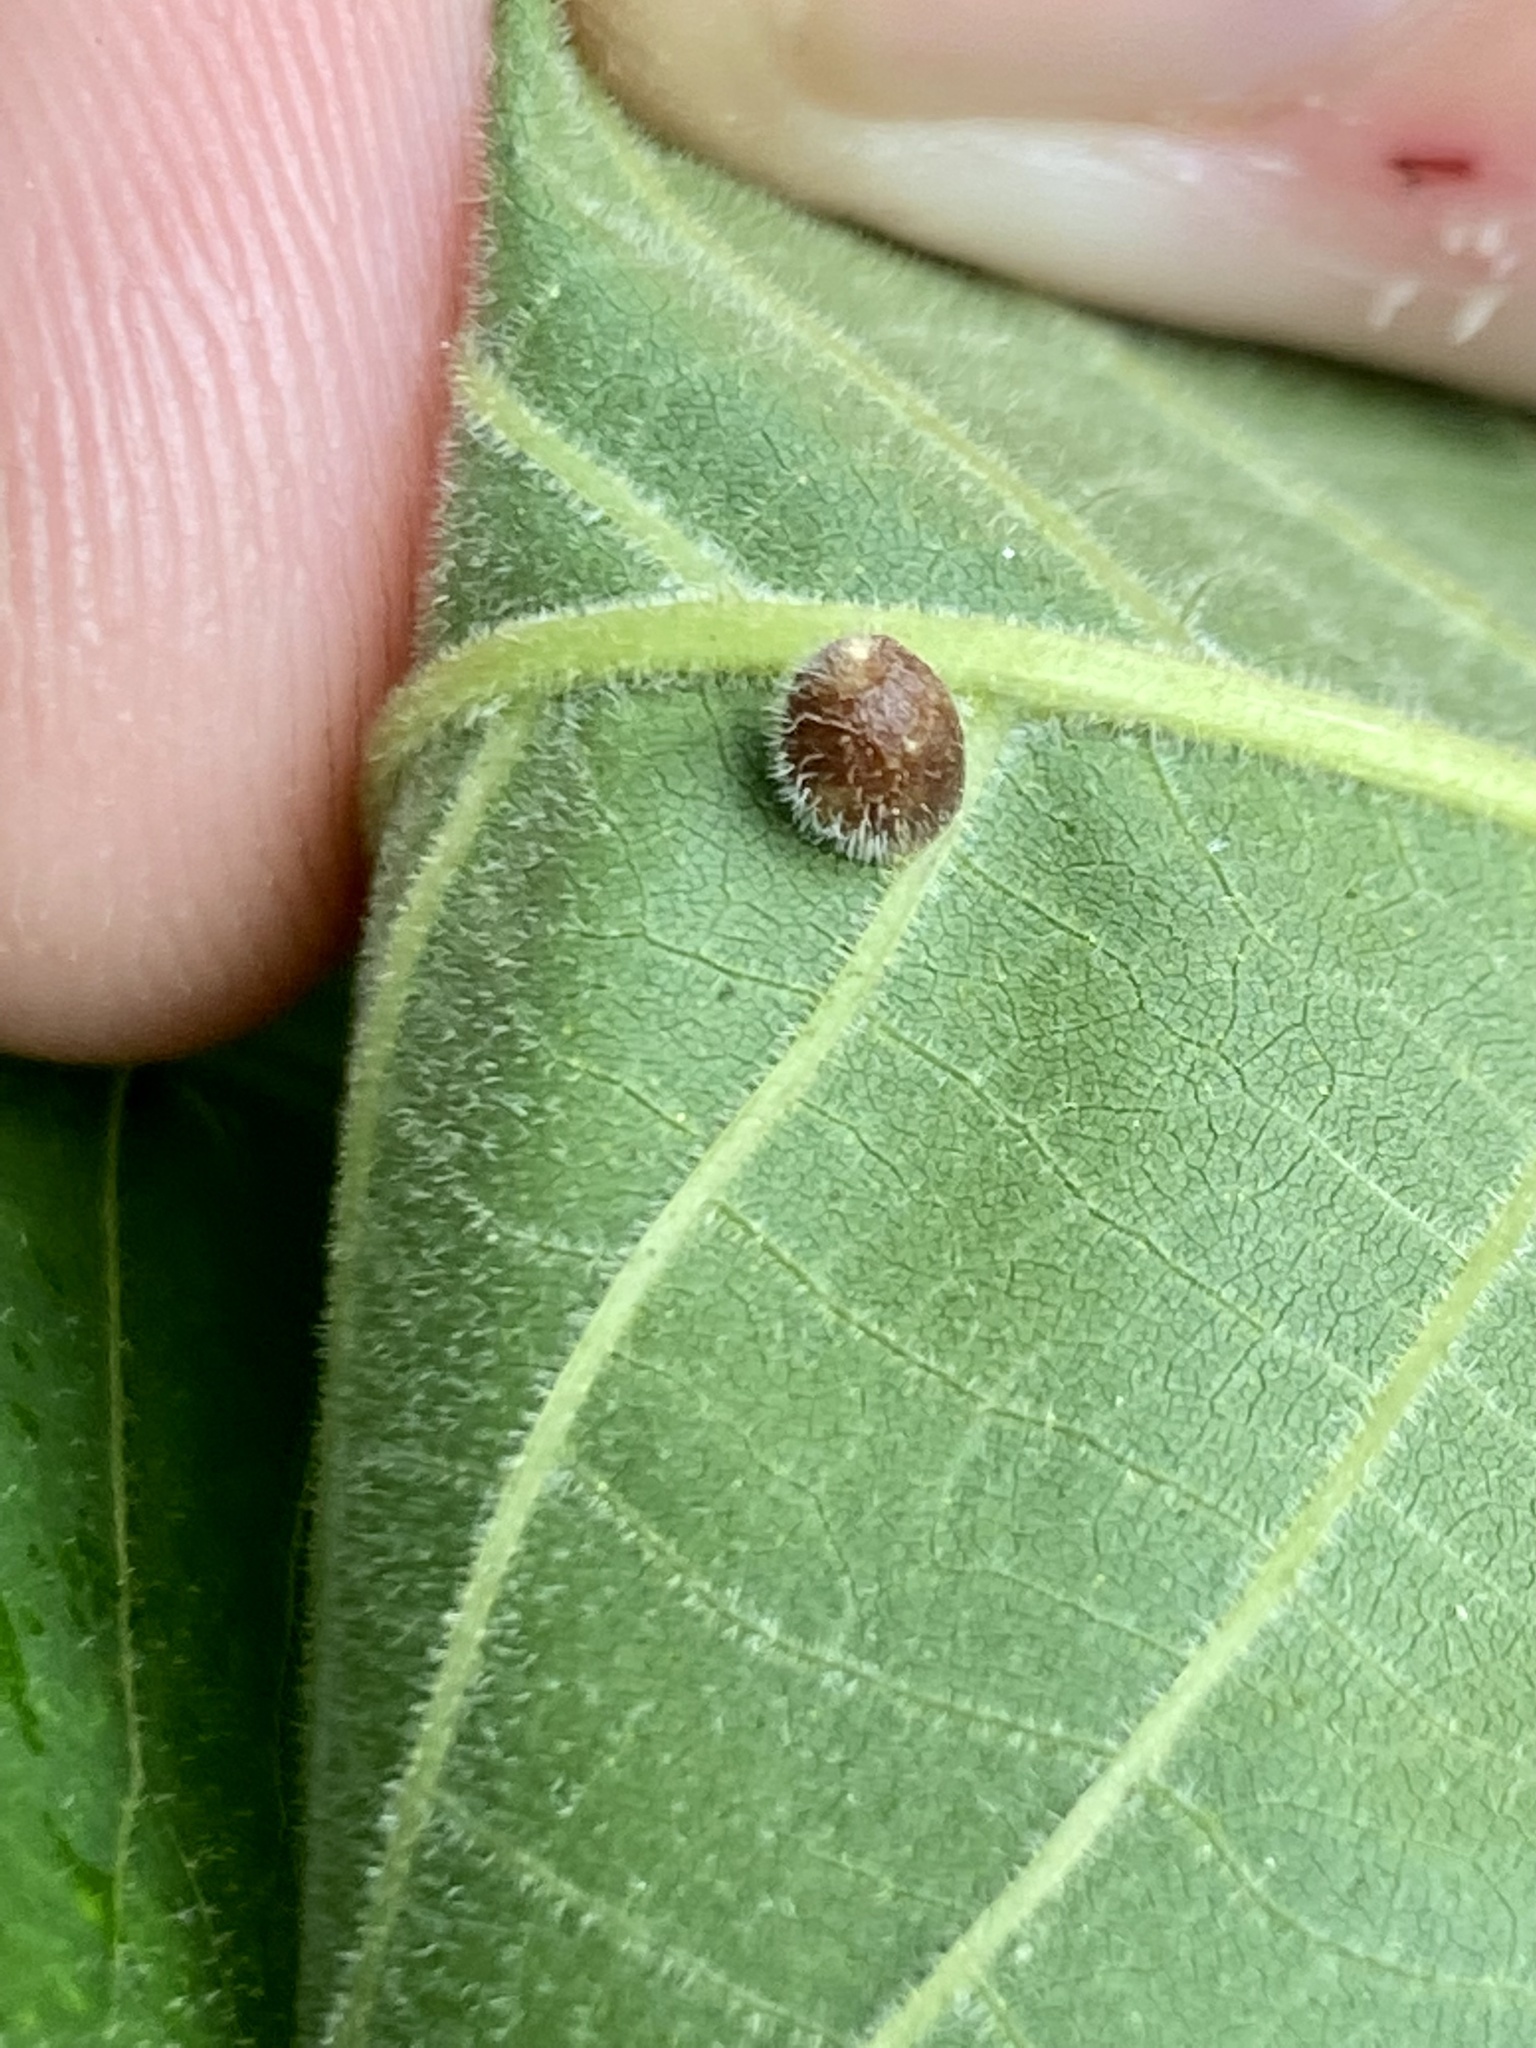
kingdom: Animalia
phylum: Arthropoda
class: Insecta
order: Diptera
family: Cecidomyiidae
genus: Caryomyia
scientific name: Caryomyia cilidolium
